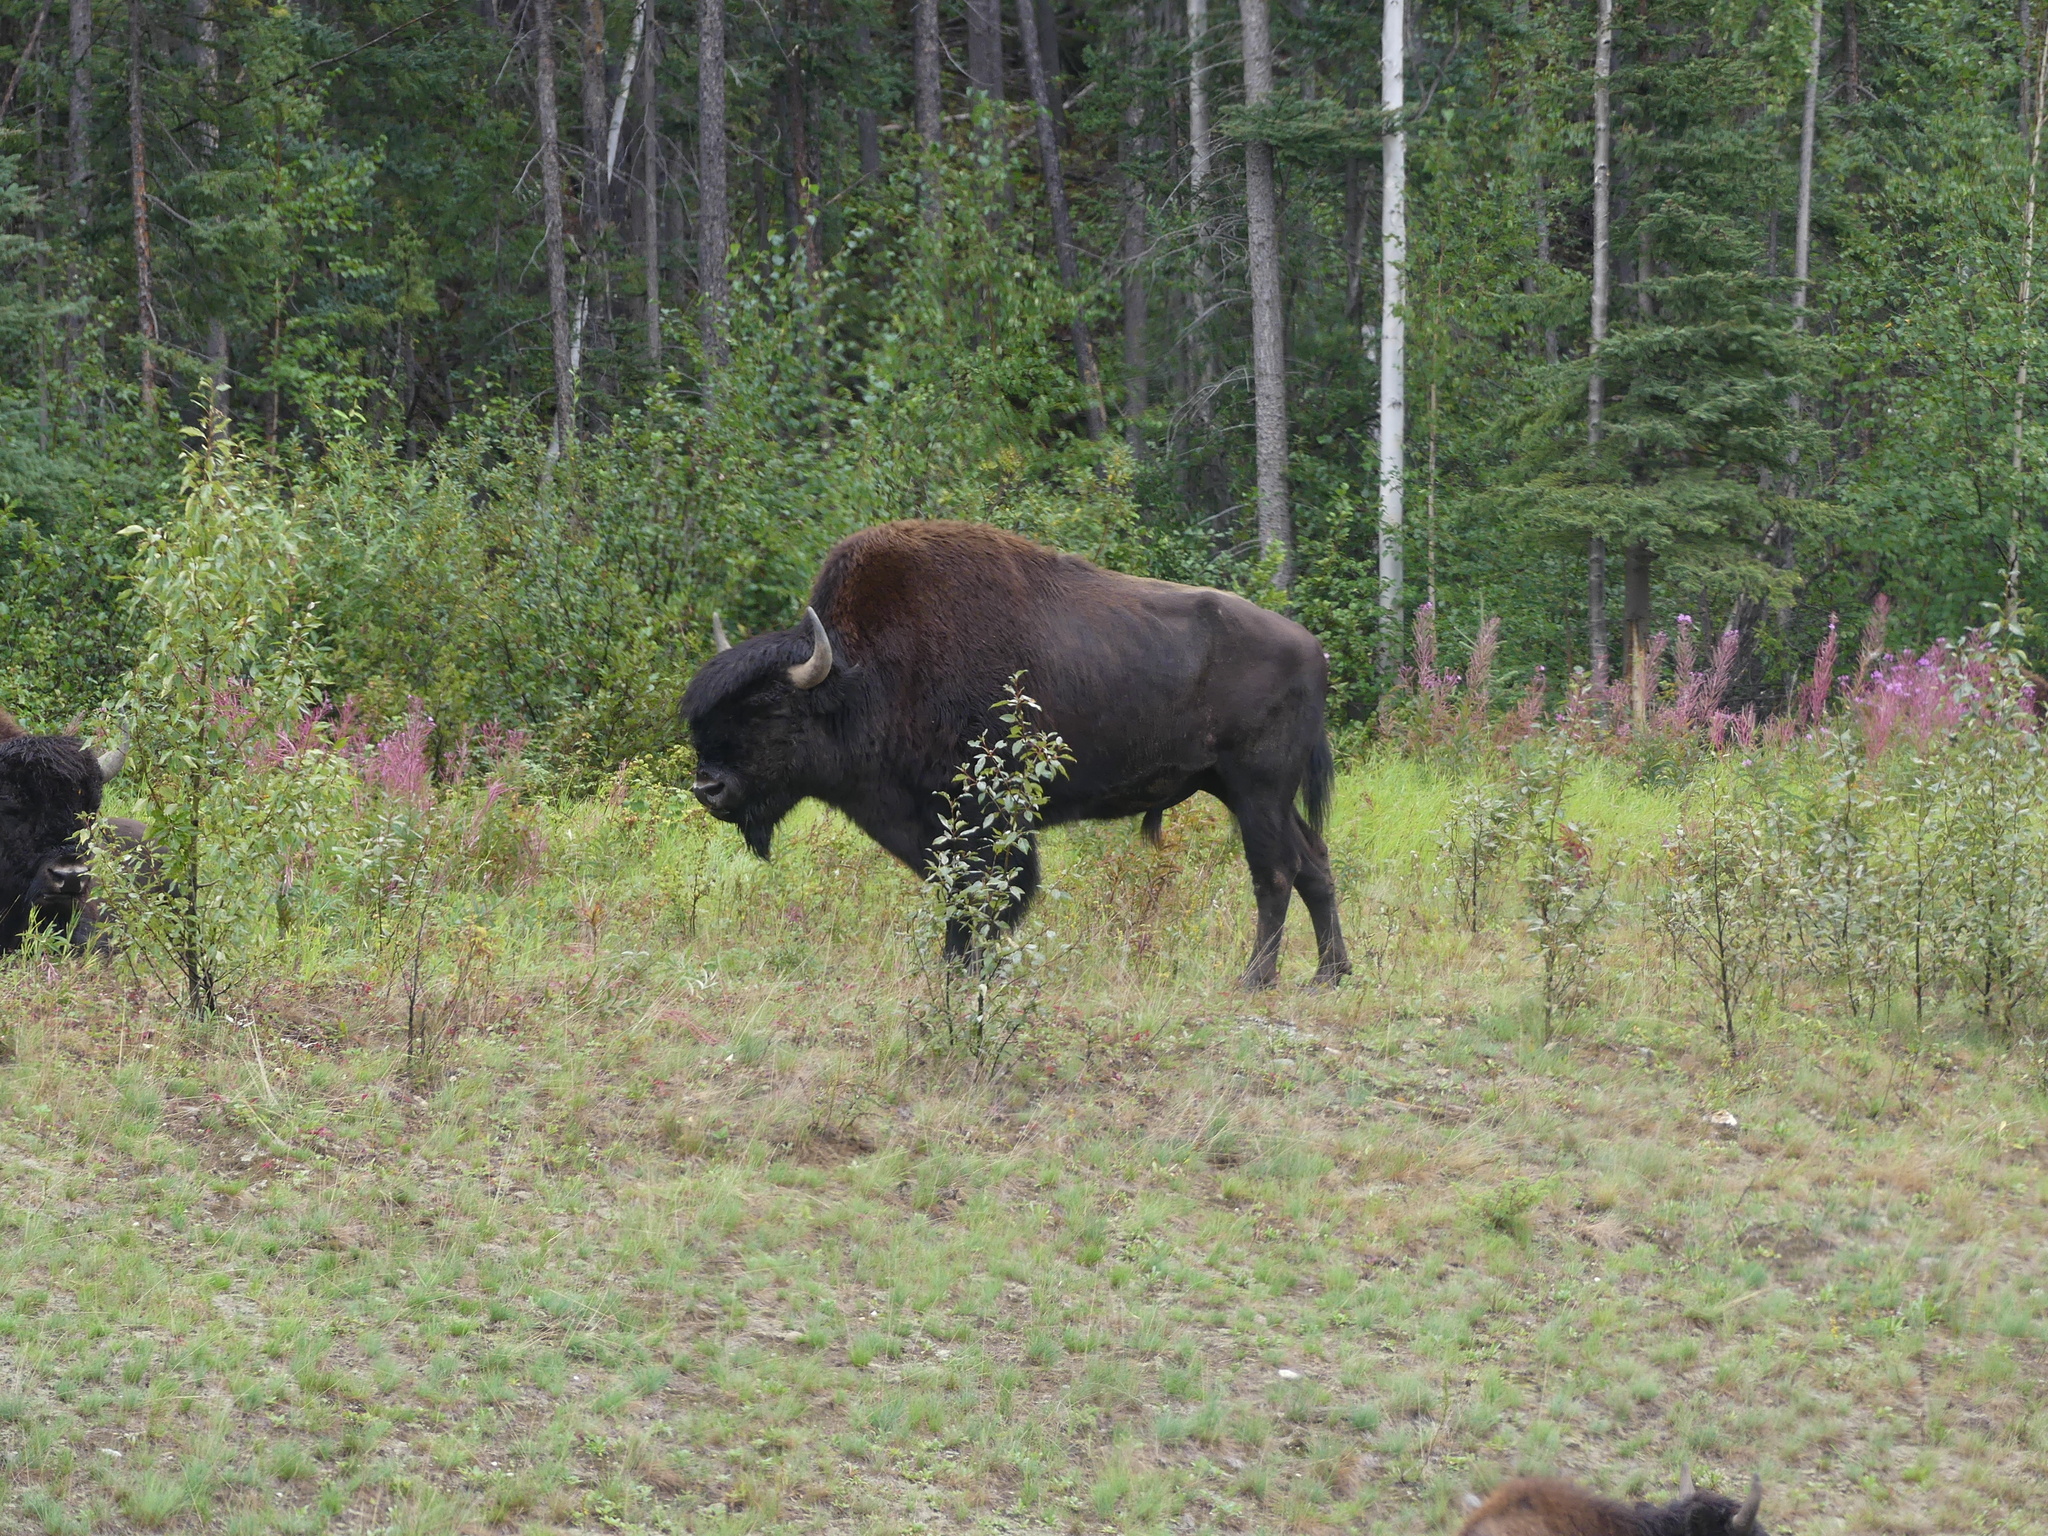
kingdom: Animalia
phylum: Chordata
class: Mammalia
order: Artiodactyla
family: Bovidae
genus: Bison
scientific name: Bison bison
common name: American bison
